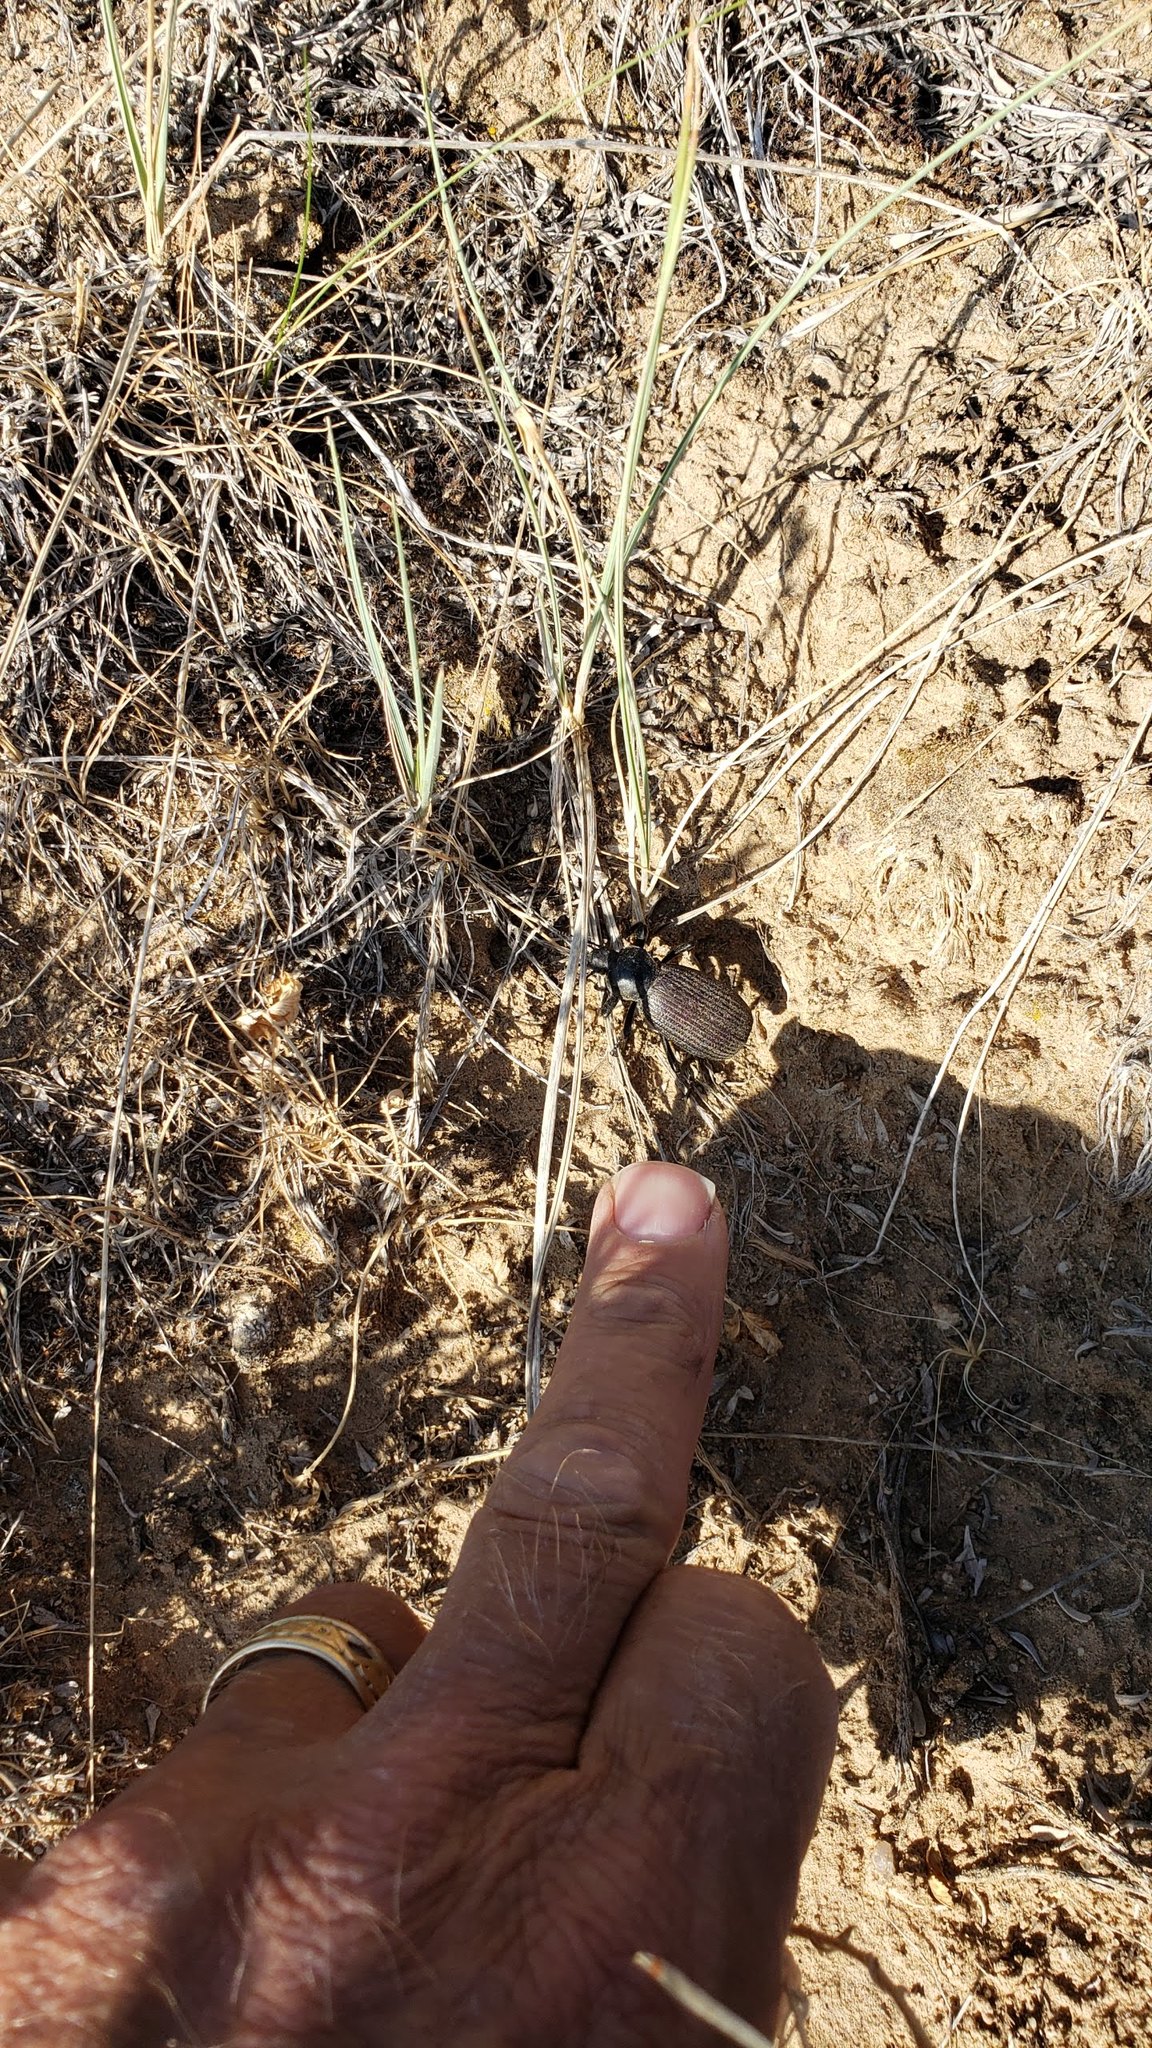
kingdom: Animalia
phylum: Arthropoda
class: Insecta
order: Coleoptera
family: Tenebrionidae
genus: Eleodes
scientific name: Eleodes obscura
